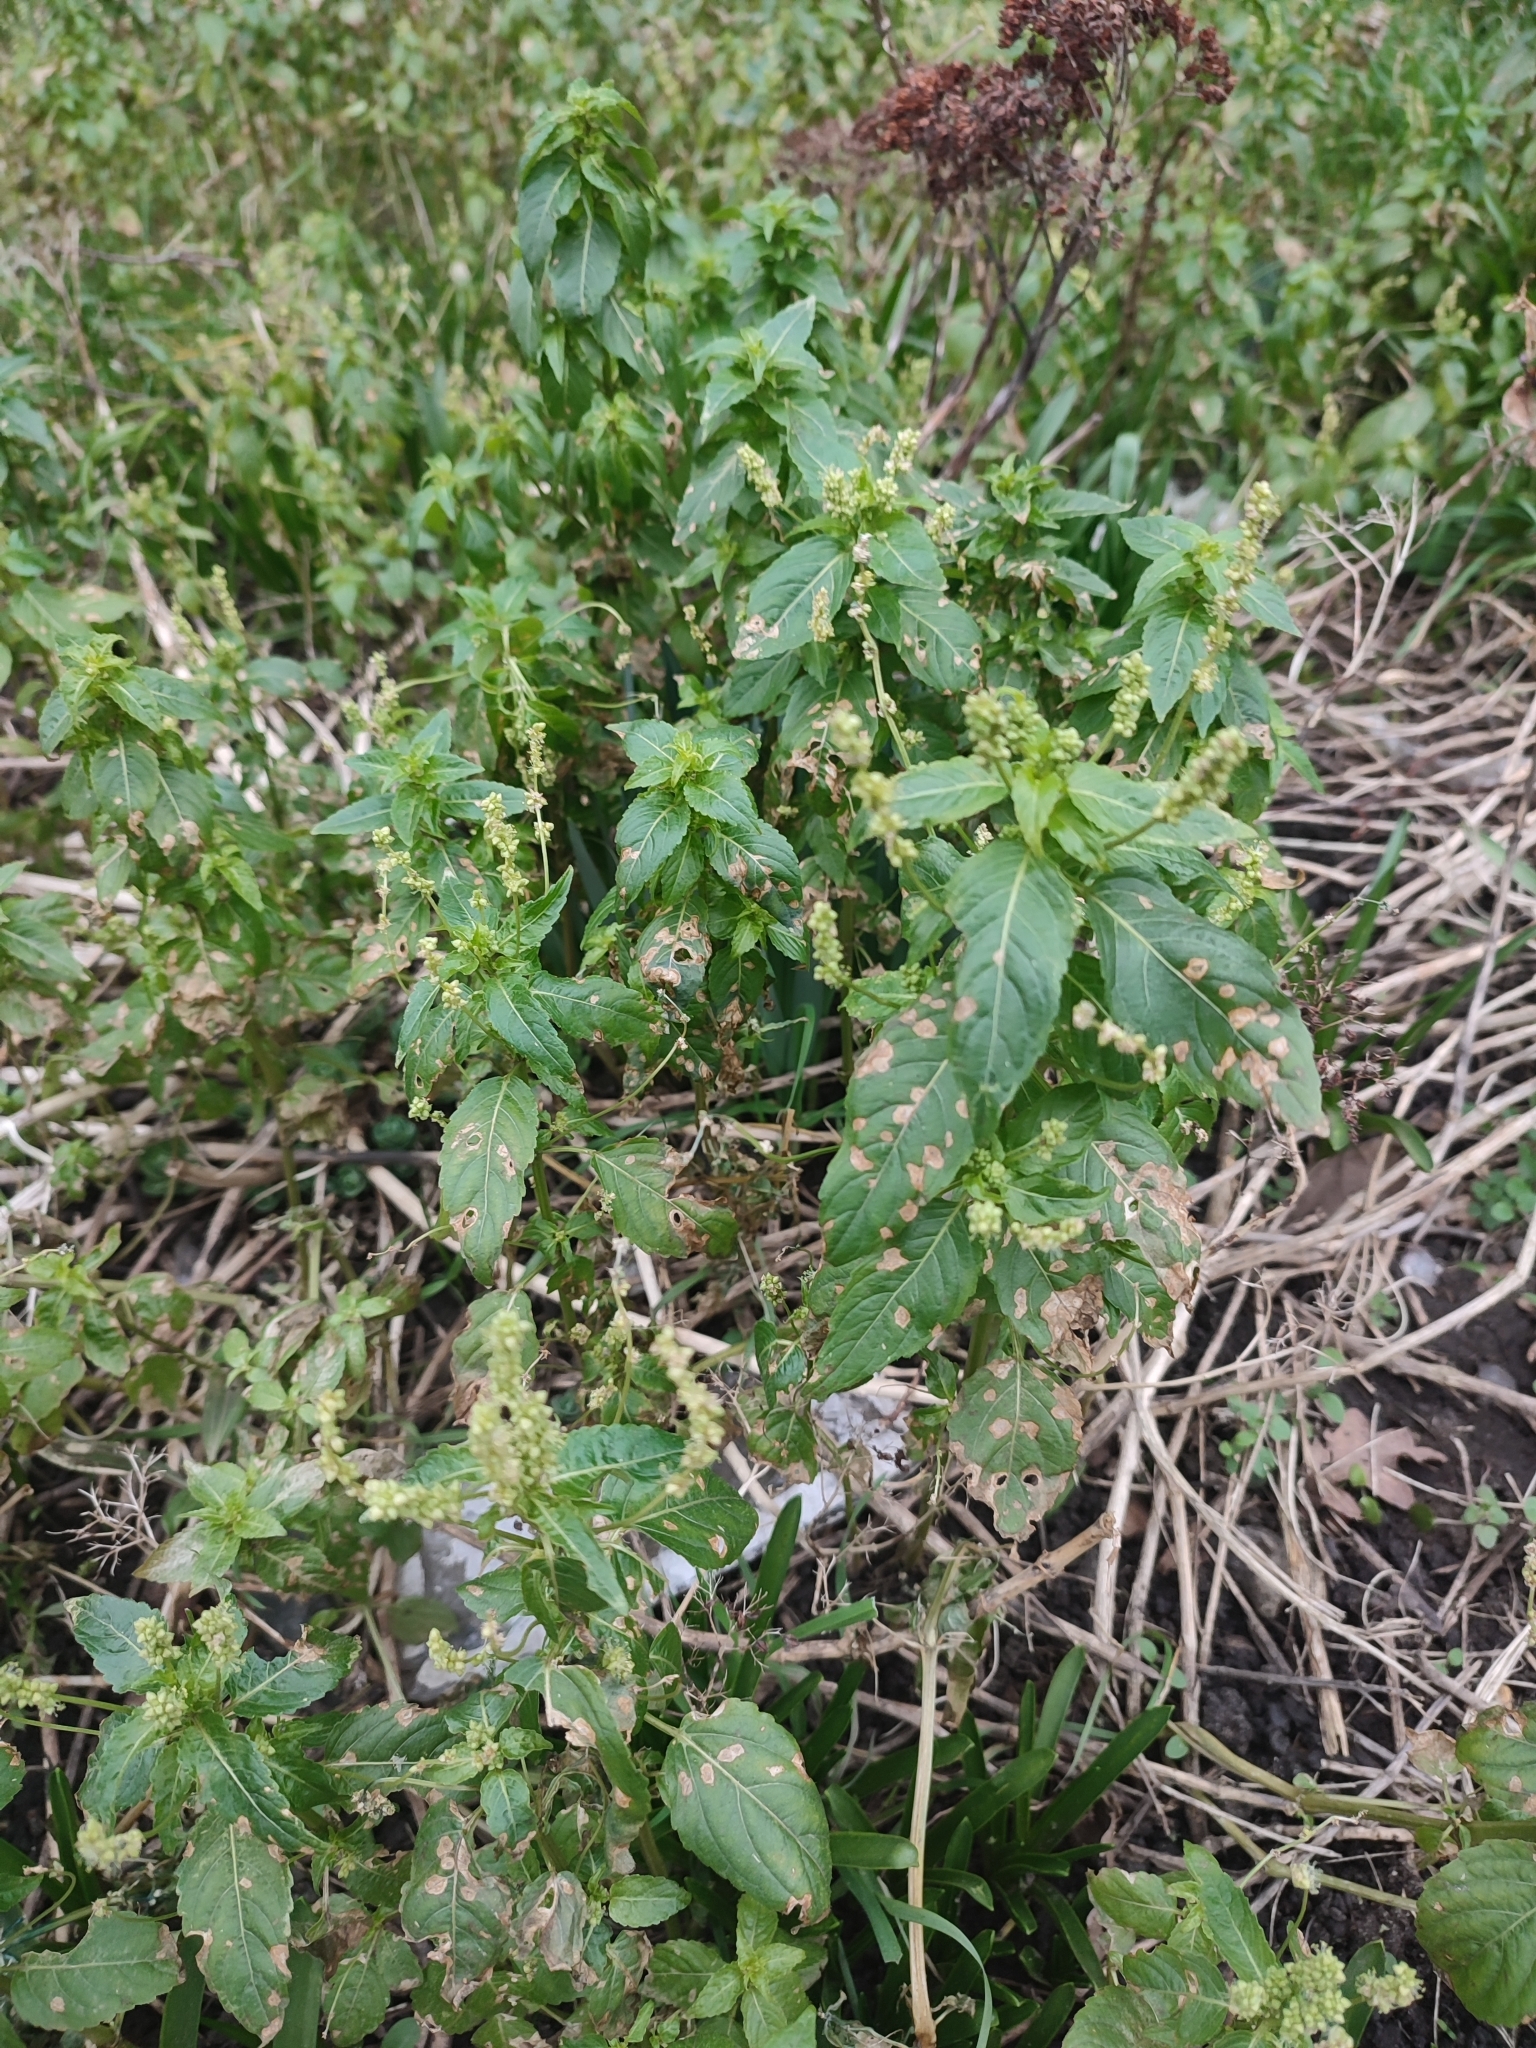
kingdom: Plantae
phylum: Tracheophyta
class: Magnoliopsida
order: Malpighiales
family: Euphorbiaceae
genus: Mercurialis
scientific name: Mercurialis annua
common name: Annual mercury
